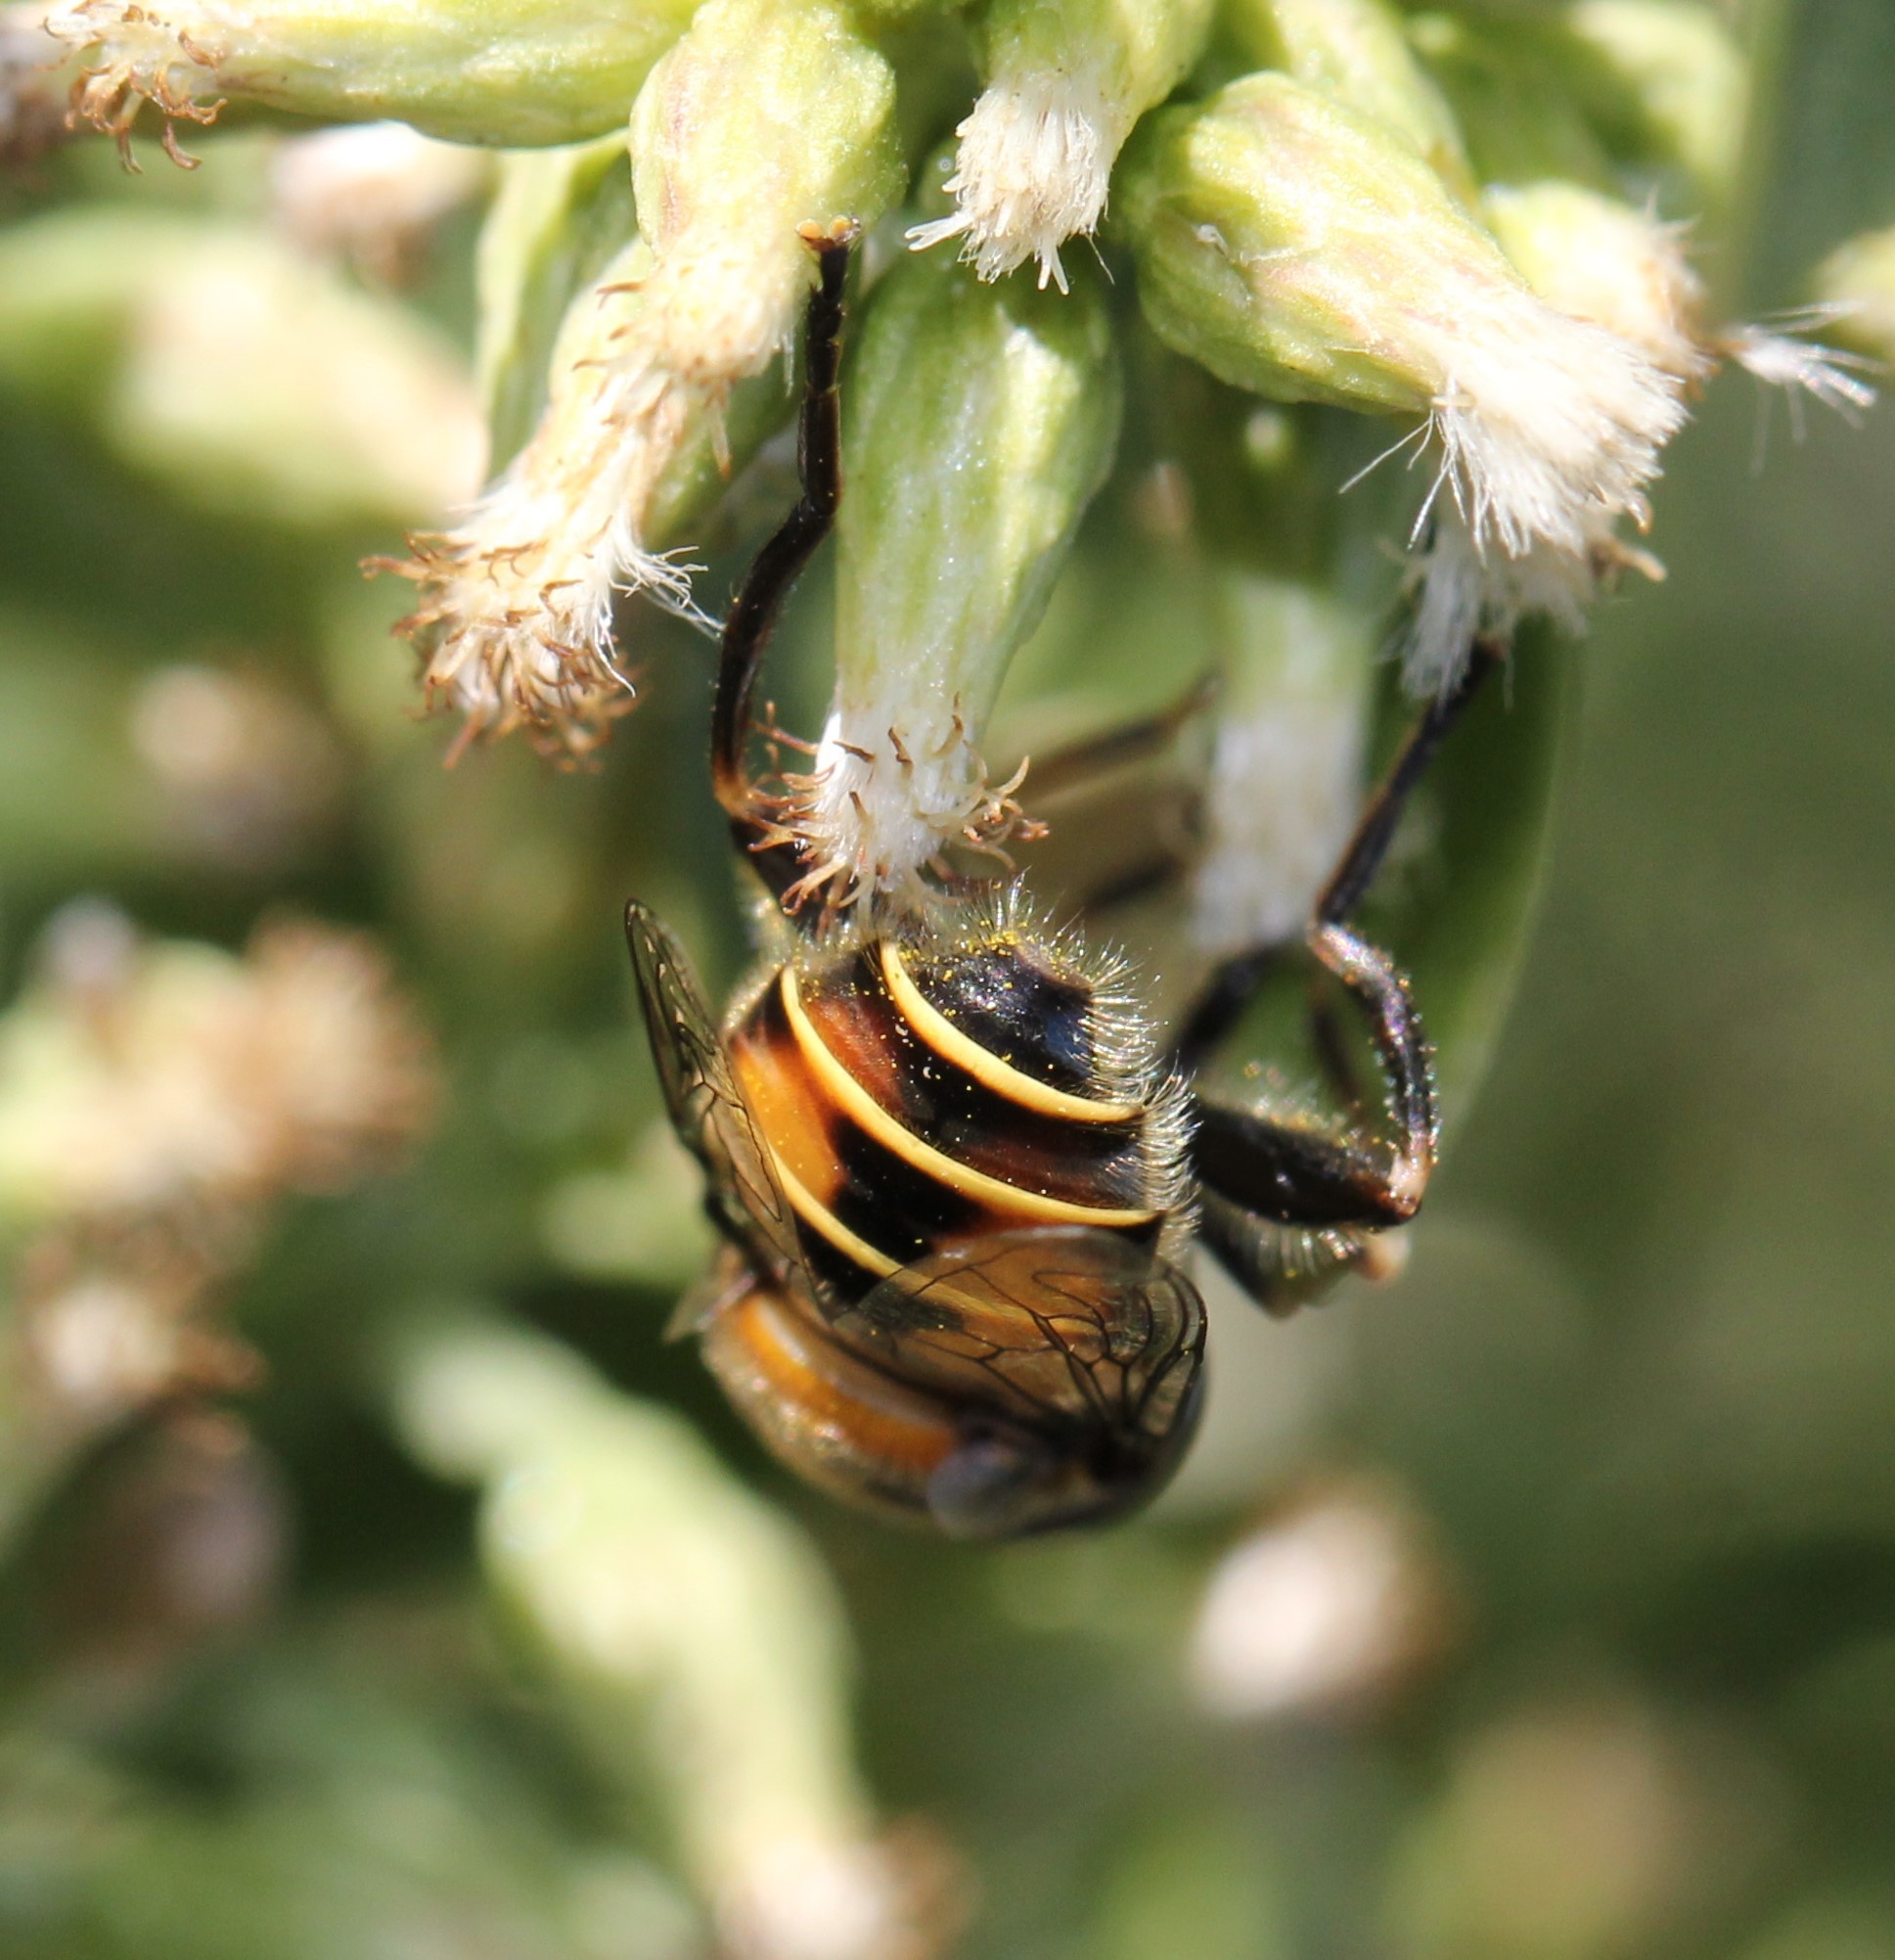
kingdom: Animalia
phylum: Arthropoda
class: Insecta
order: Diptera
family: Syrphidae
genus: Palpada
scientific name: Palpada agrorum
